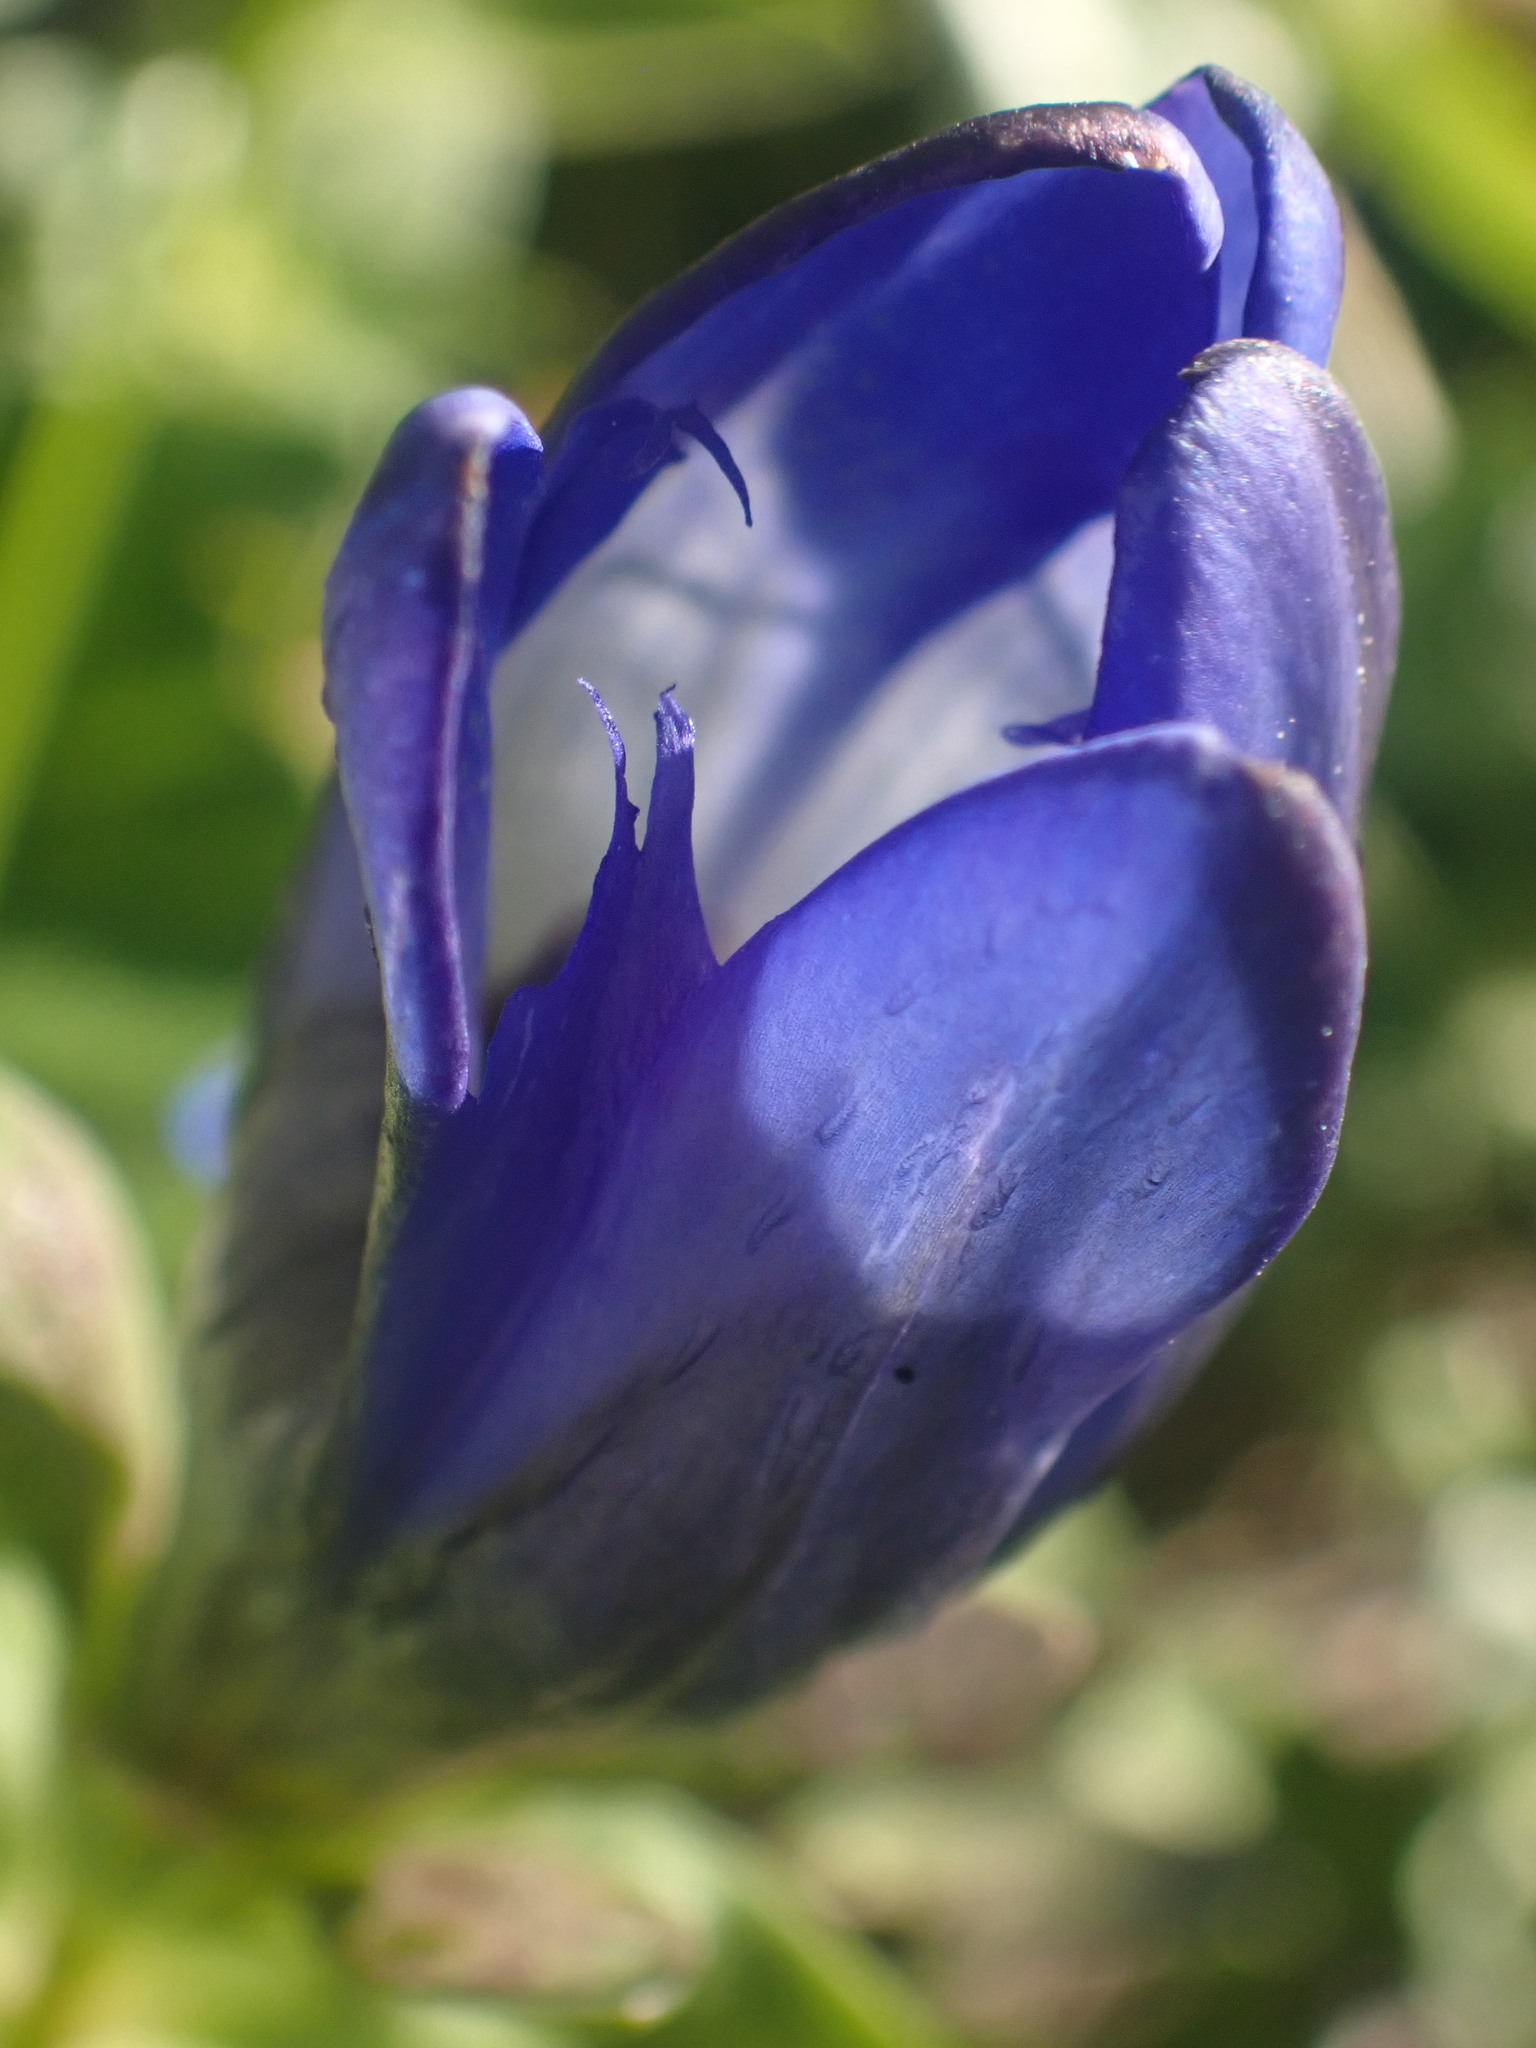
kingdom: Plantae
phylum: Tracheophyta
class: Magnoliopsida
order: Gentianales
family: Gentianaceae
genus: Gentiana
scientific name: Gentiana calycosa
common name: Rainier pleated gentian
